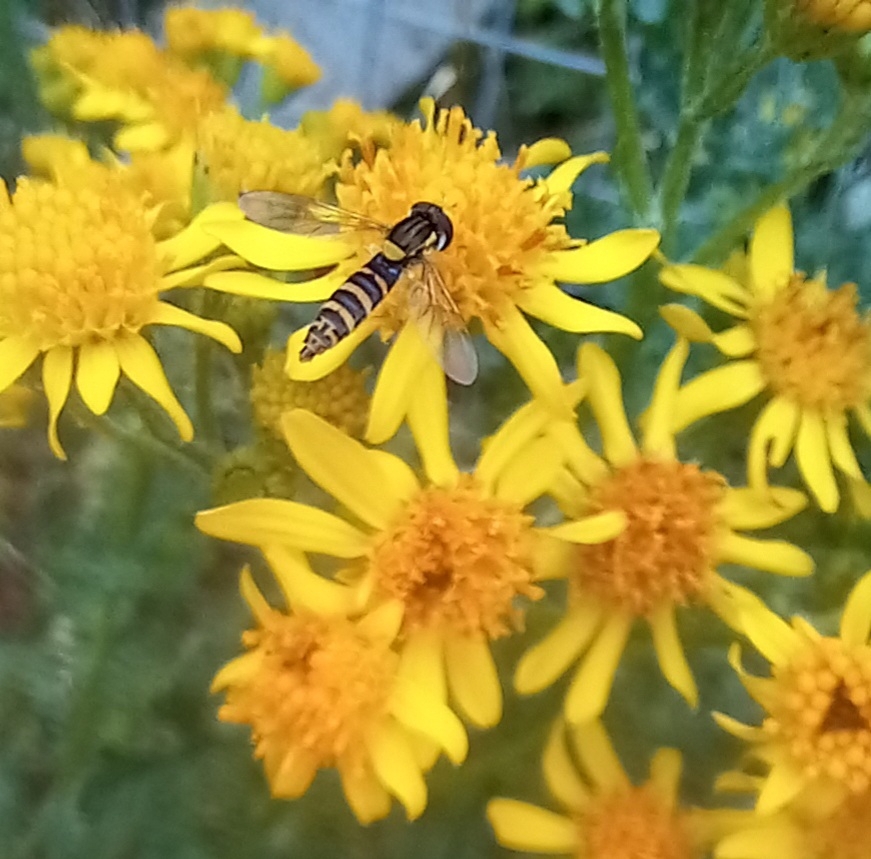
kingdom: Animalia
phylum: Arthropoda
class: Insecta
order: Diptera
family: Syrphidae
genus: Sphaerophoria
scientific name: Sphaerophoria
